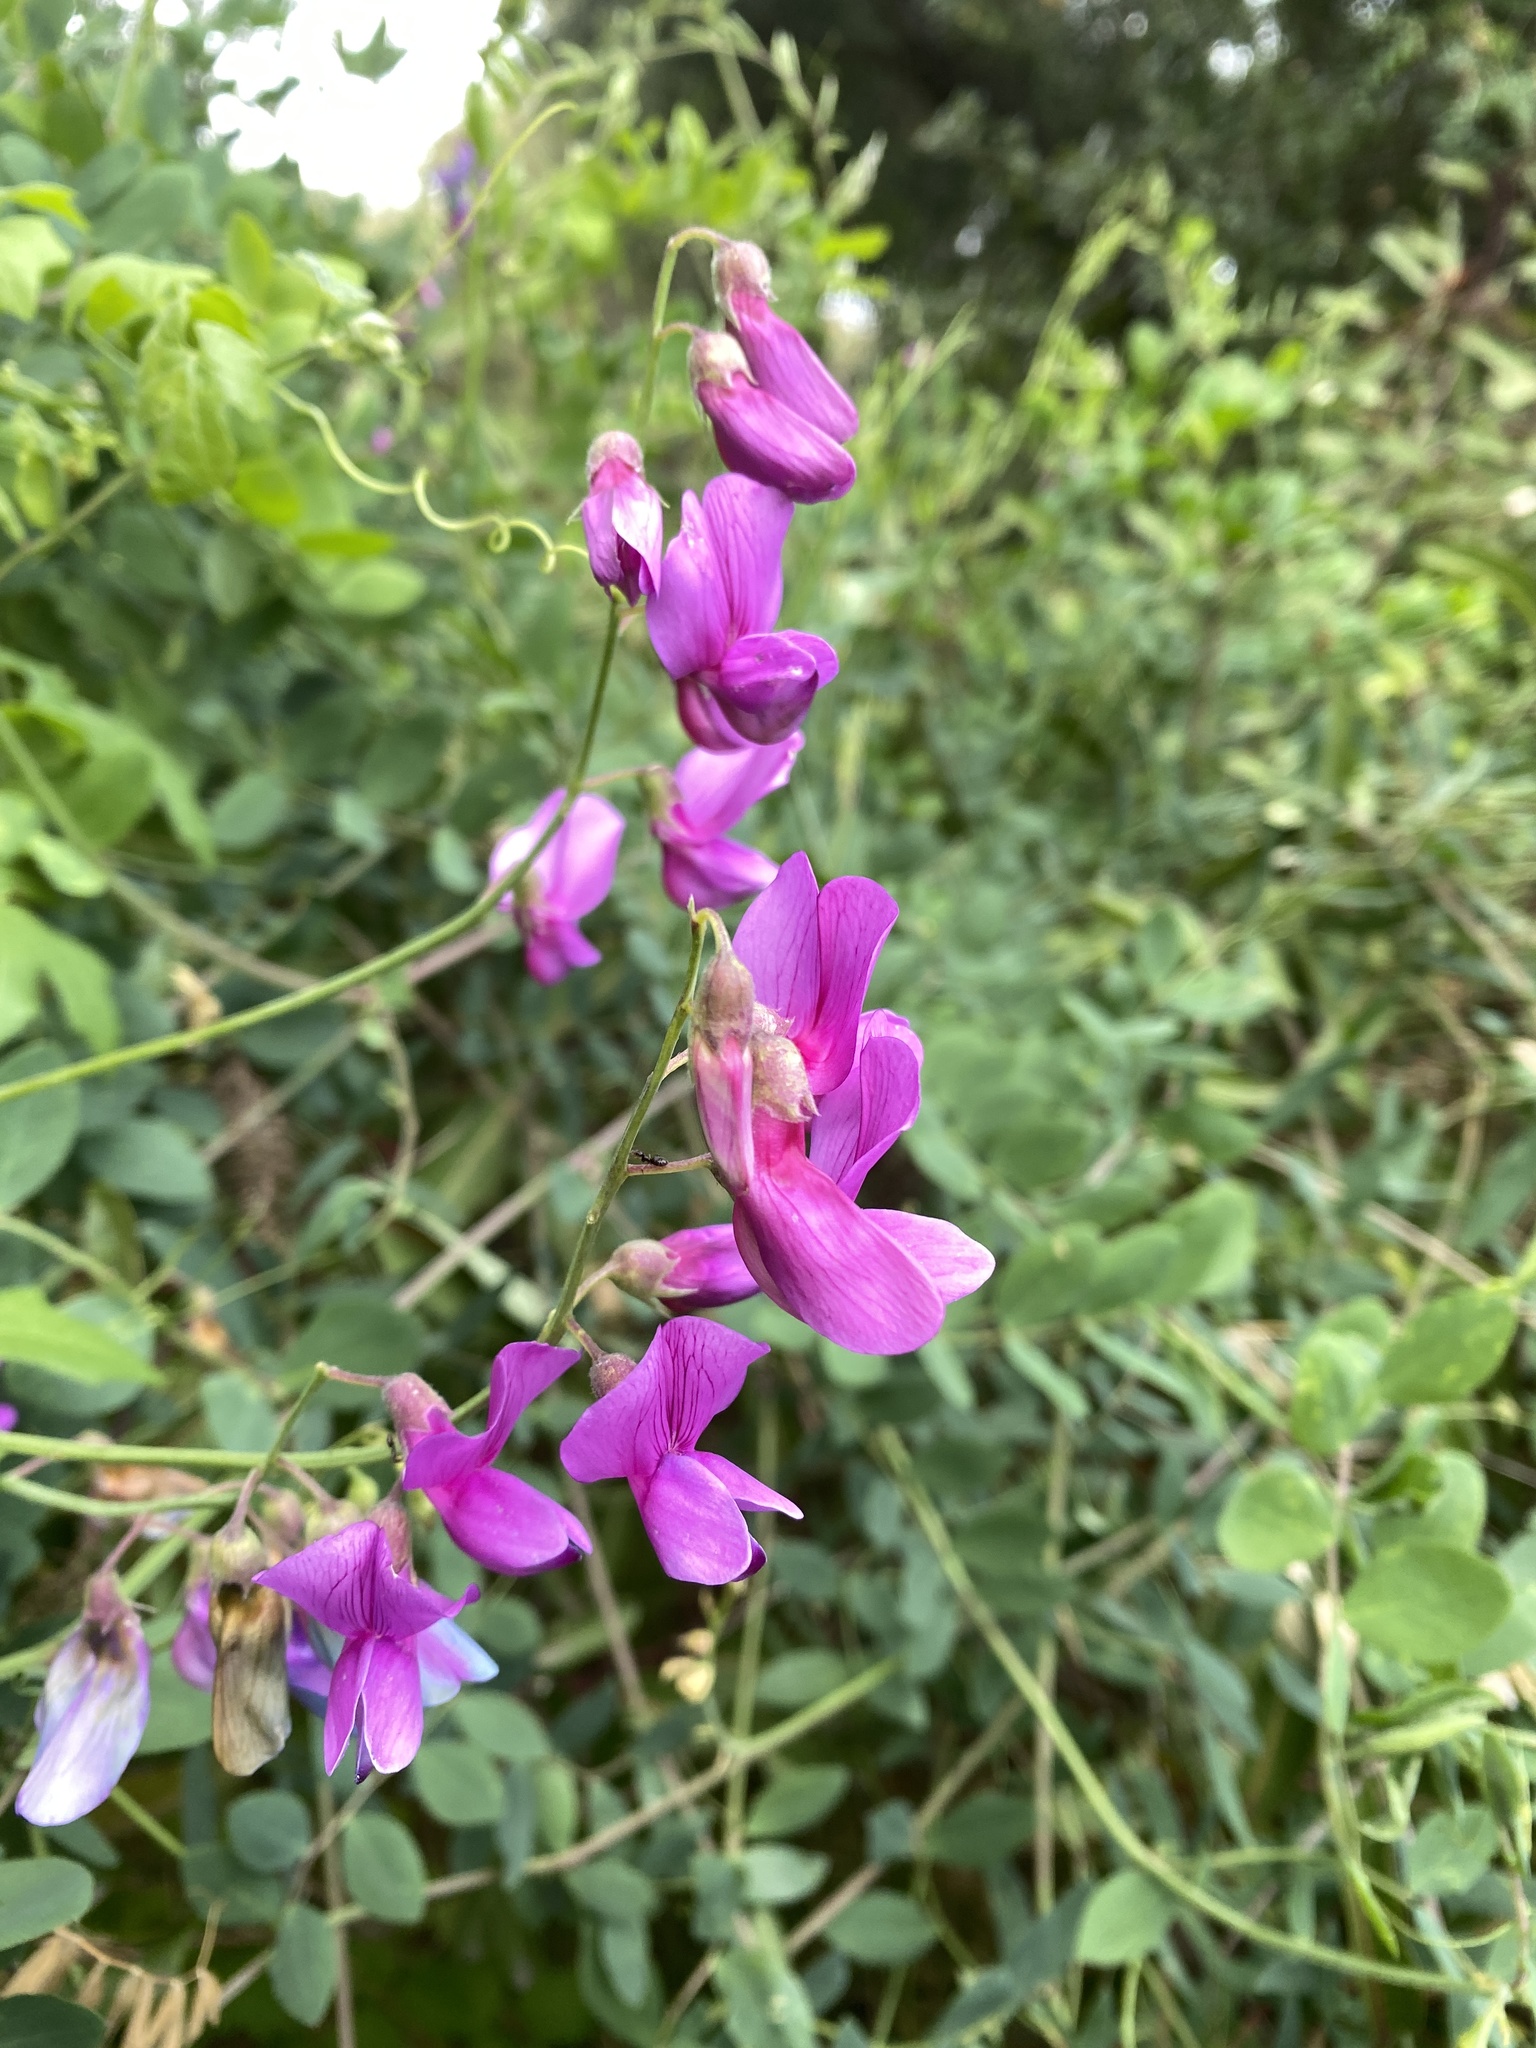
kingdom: Plantae
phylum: Tracheophyta
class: Magnoliopsida
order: Fabales
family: Fabaceae
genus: Lathyrus
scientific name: Lathyrus vestitus
